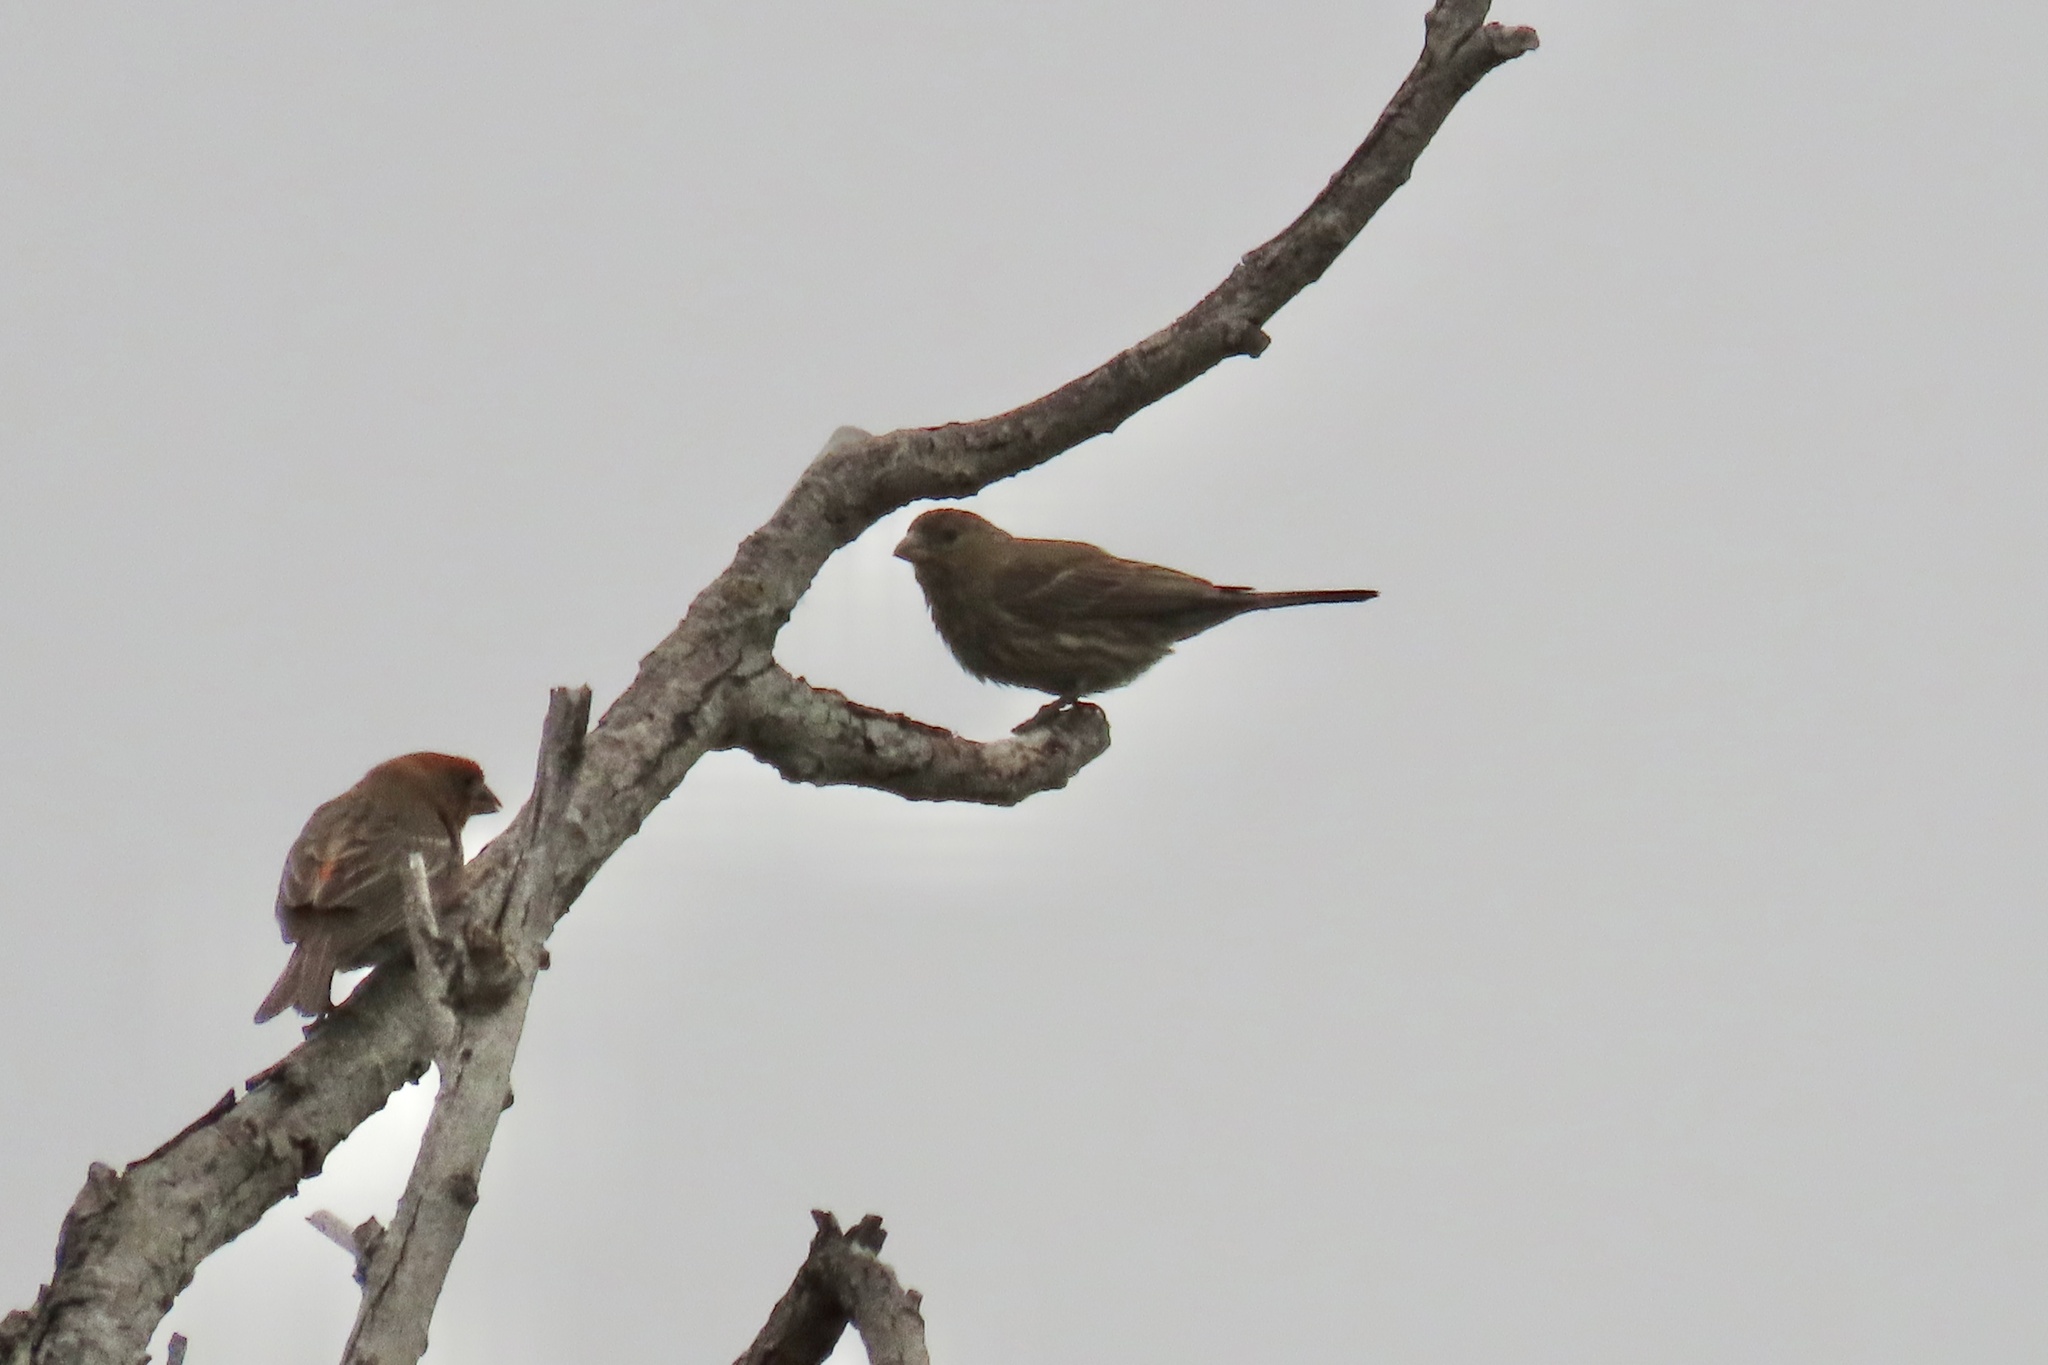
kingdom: Animalia
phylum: Chordata
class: Aves
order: Passeriformes
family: Fringillidae
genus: Haemorhous
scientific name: Haemorhous mexicanus
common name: House finch
